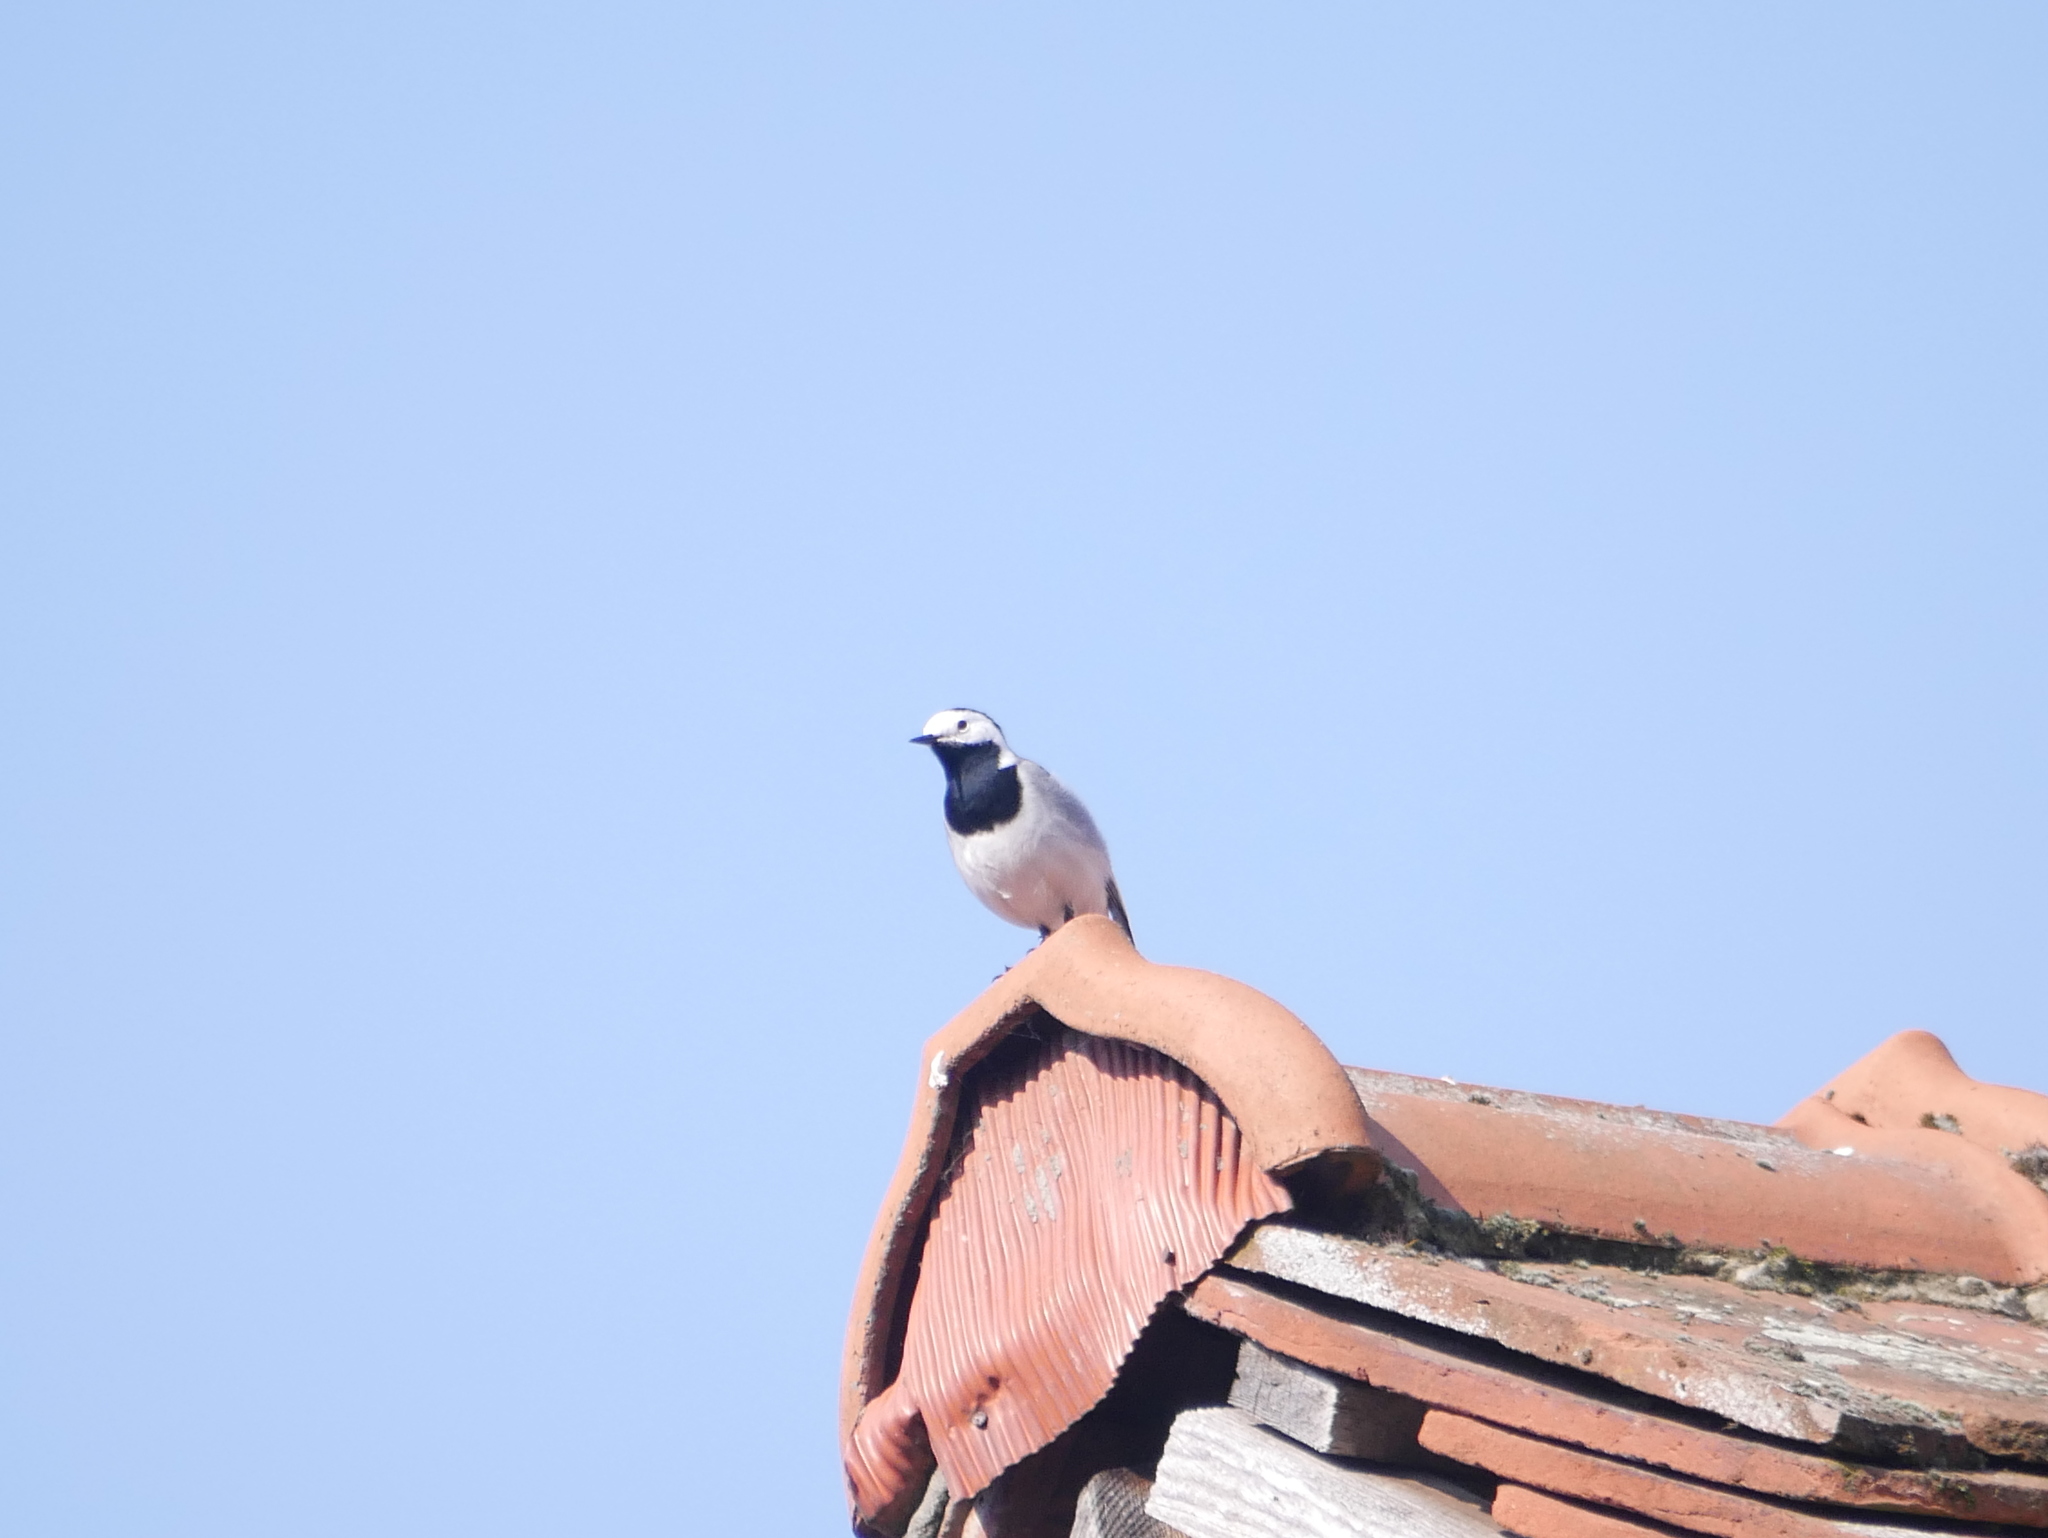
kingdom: Animalia
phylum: Chordata
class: Aves
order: Passeriformes
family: Motacillidae
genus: Motacilla
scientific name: Motacilla alba
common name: White wagtail
